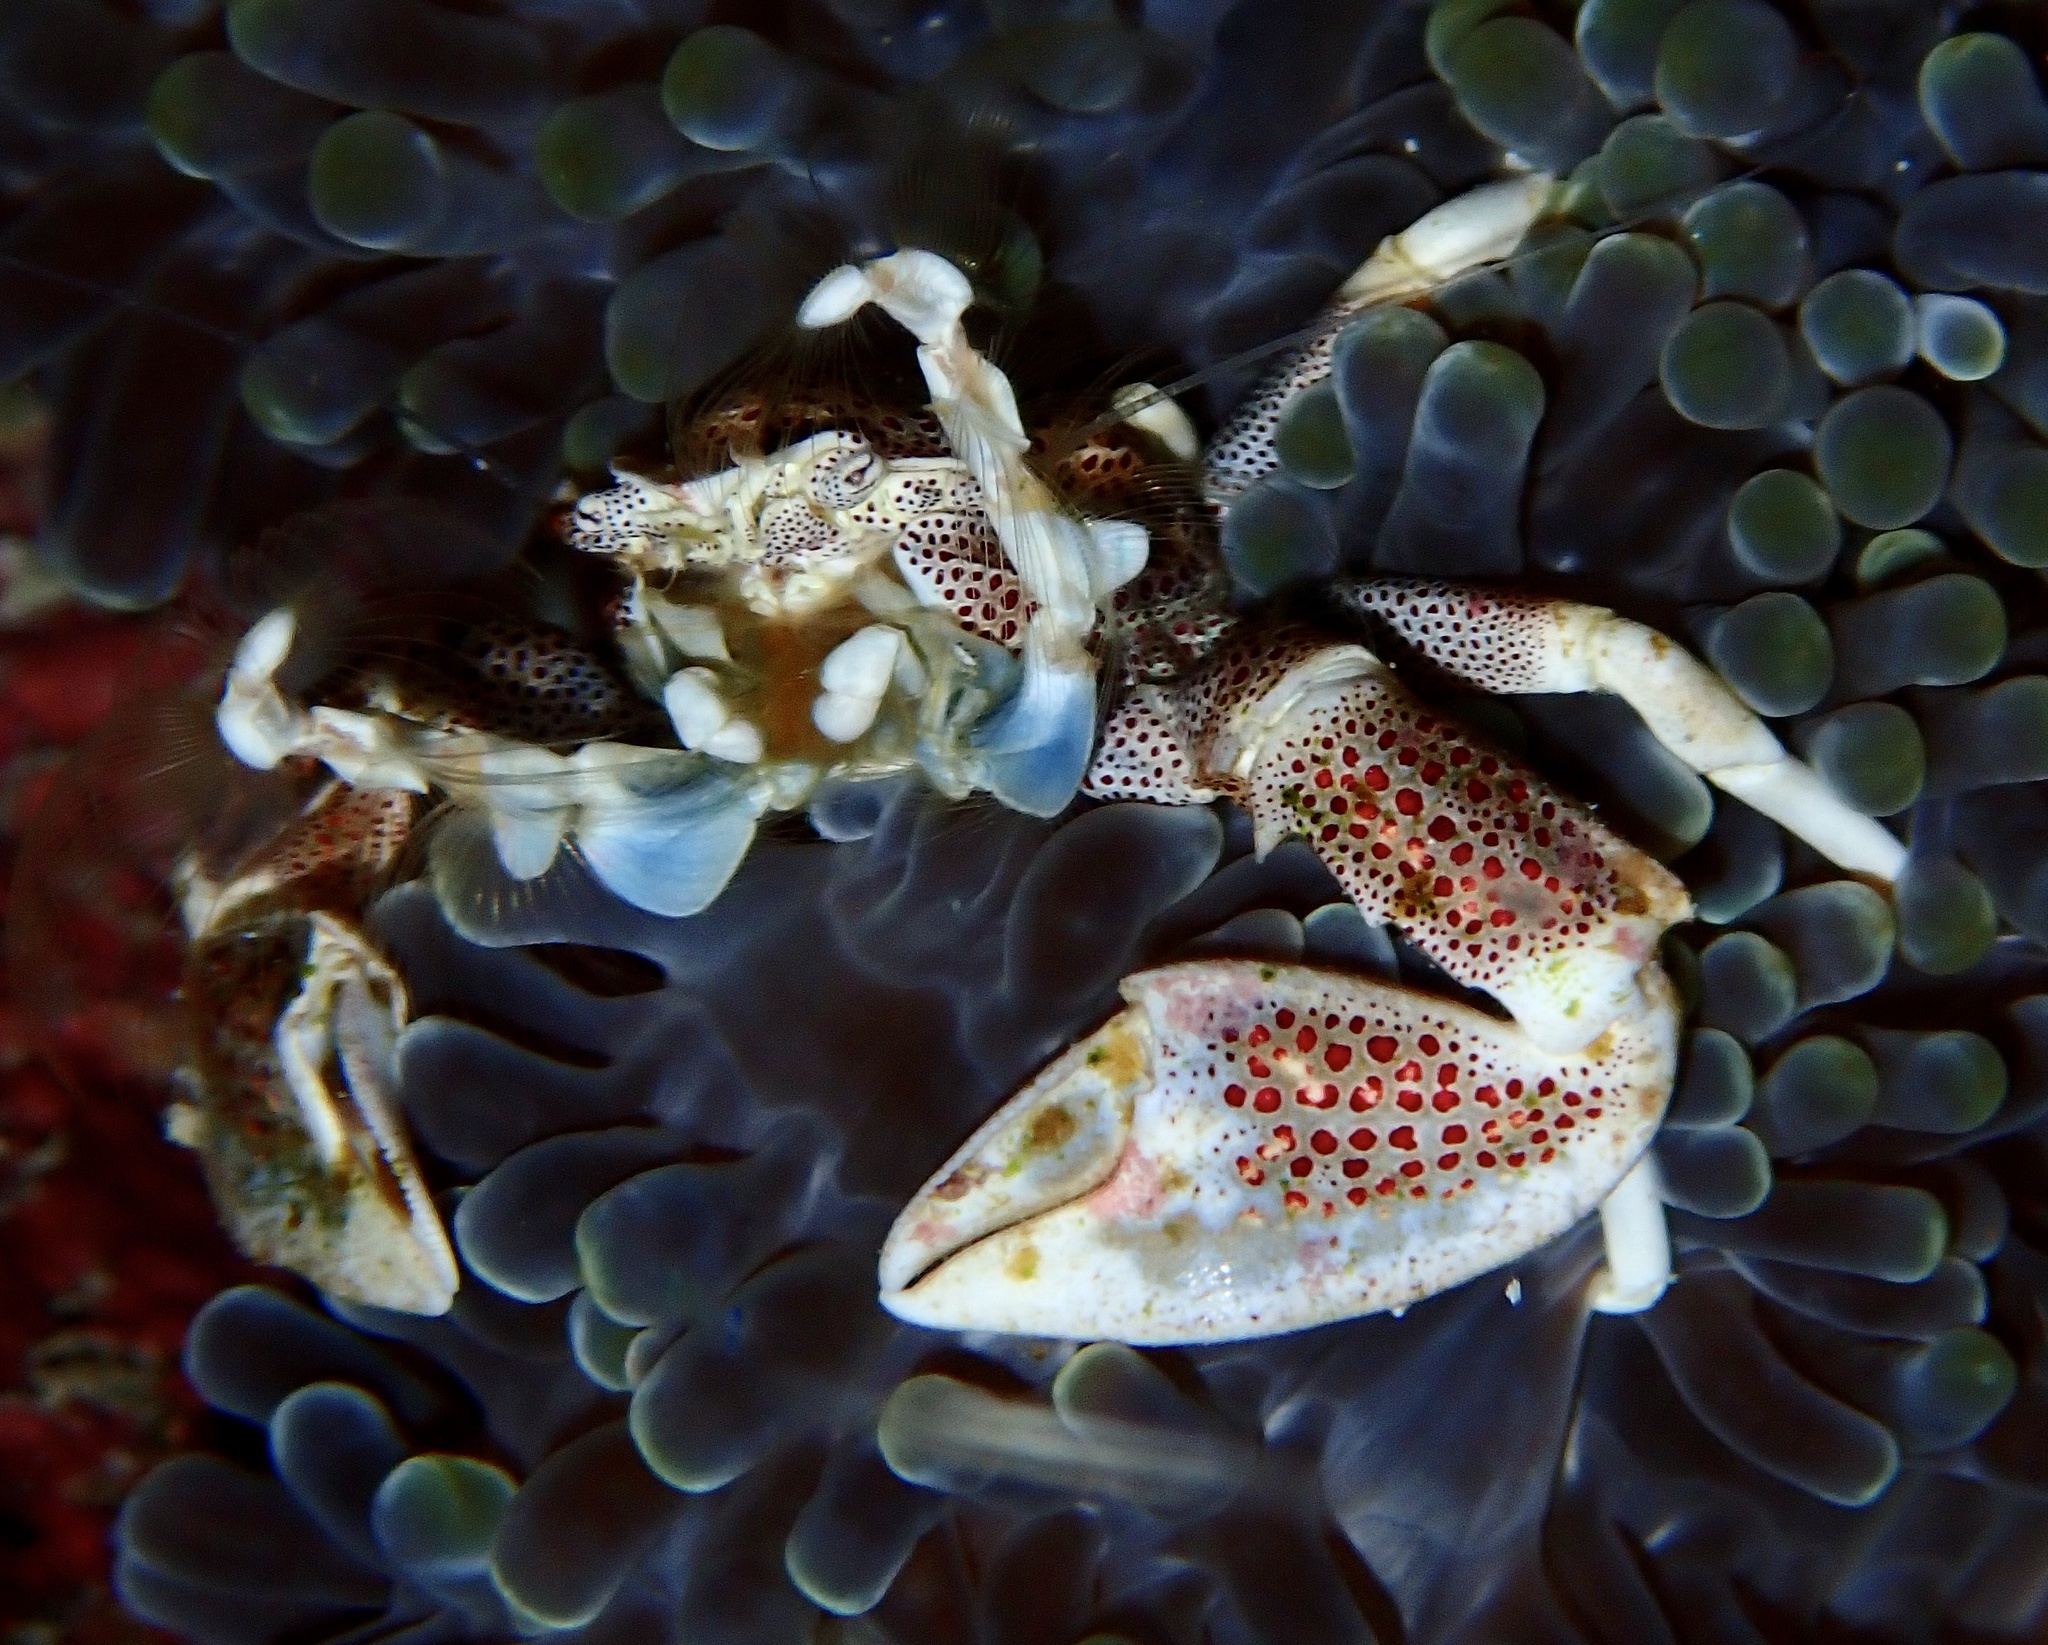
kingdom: Animalia
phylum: Arthropoda
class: Malacostraca
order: Decapoda
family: Porcellanidae
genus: Neopetrolisthes
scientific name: Neopetrolisthes maculatus
